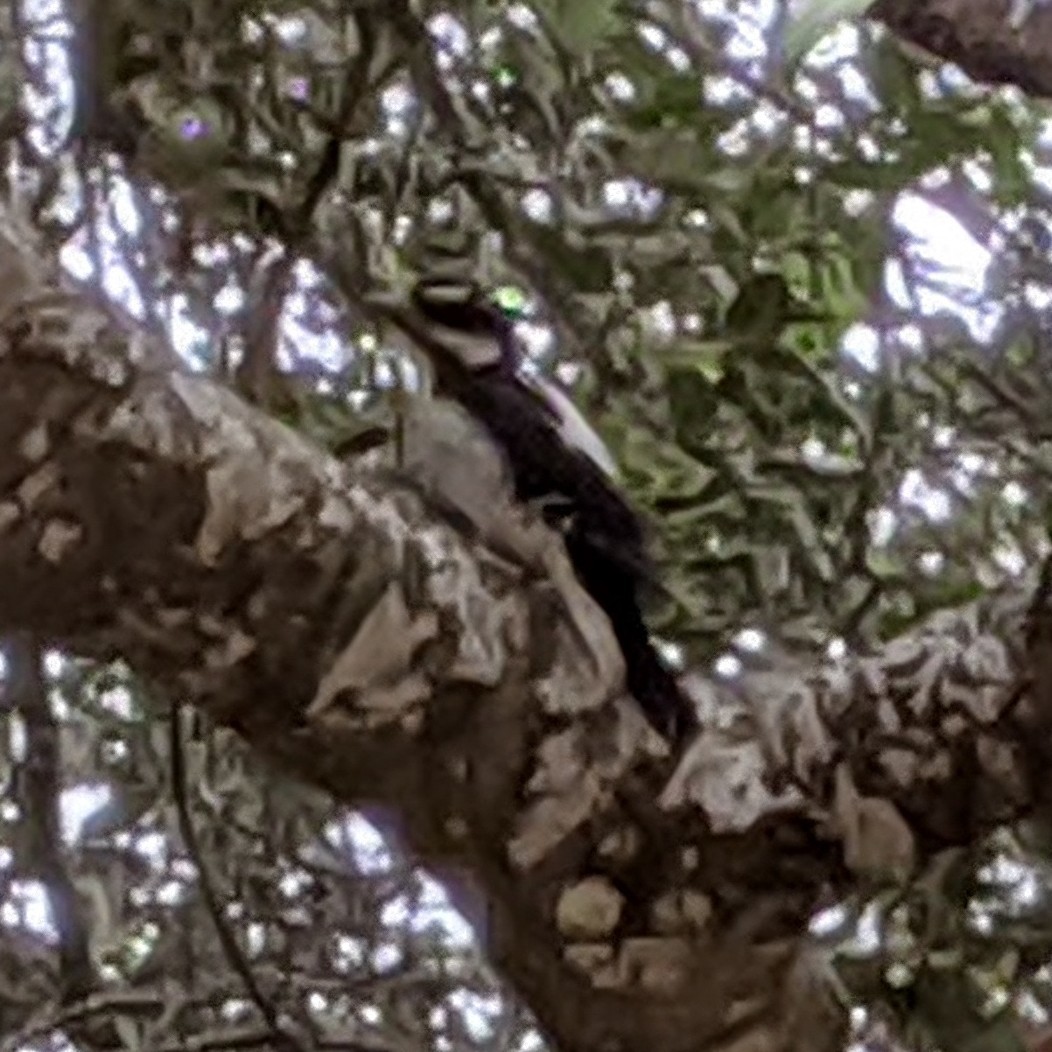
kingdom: Animalia
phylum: Chordata
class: Aves
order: Piciformes
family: Picidae
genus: Dryobates
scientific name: Dryobates pubescens
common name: Downy woodpecker
